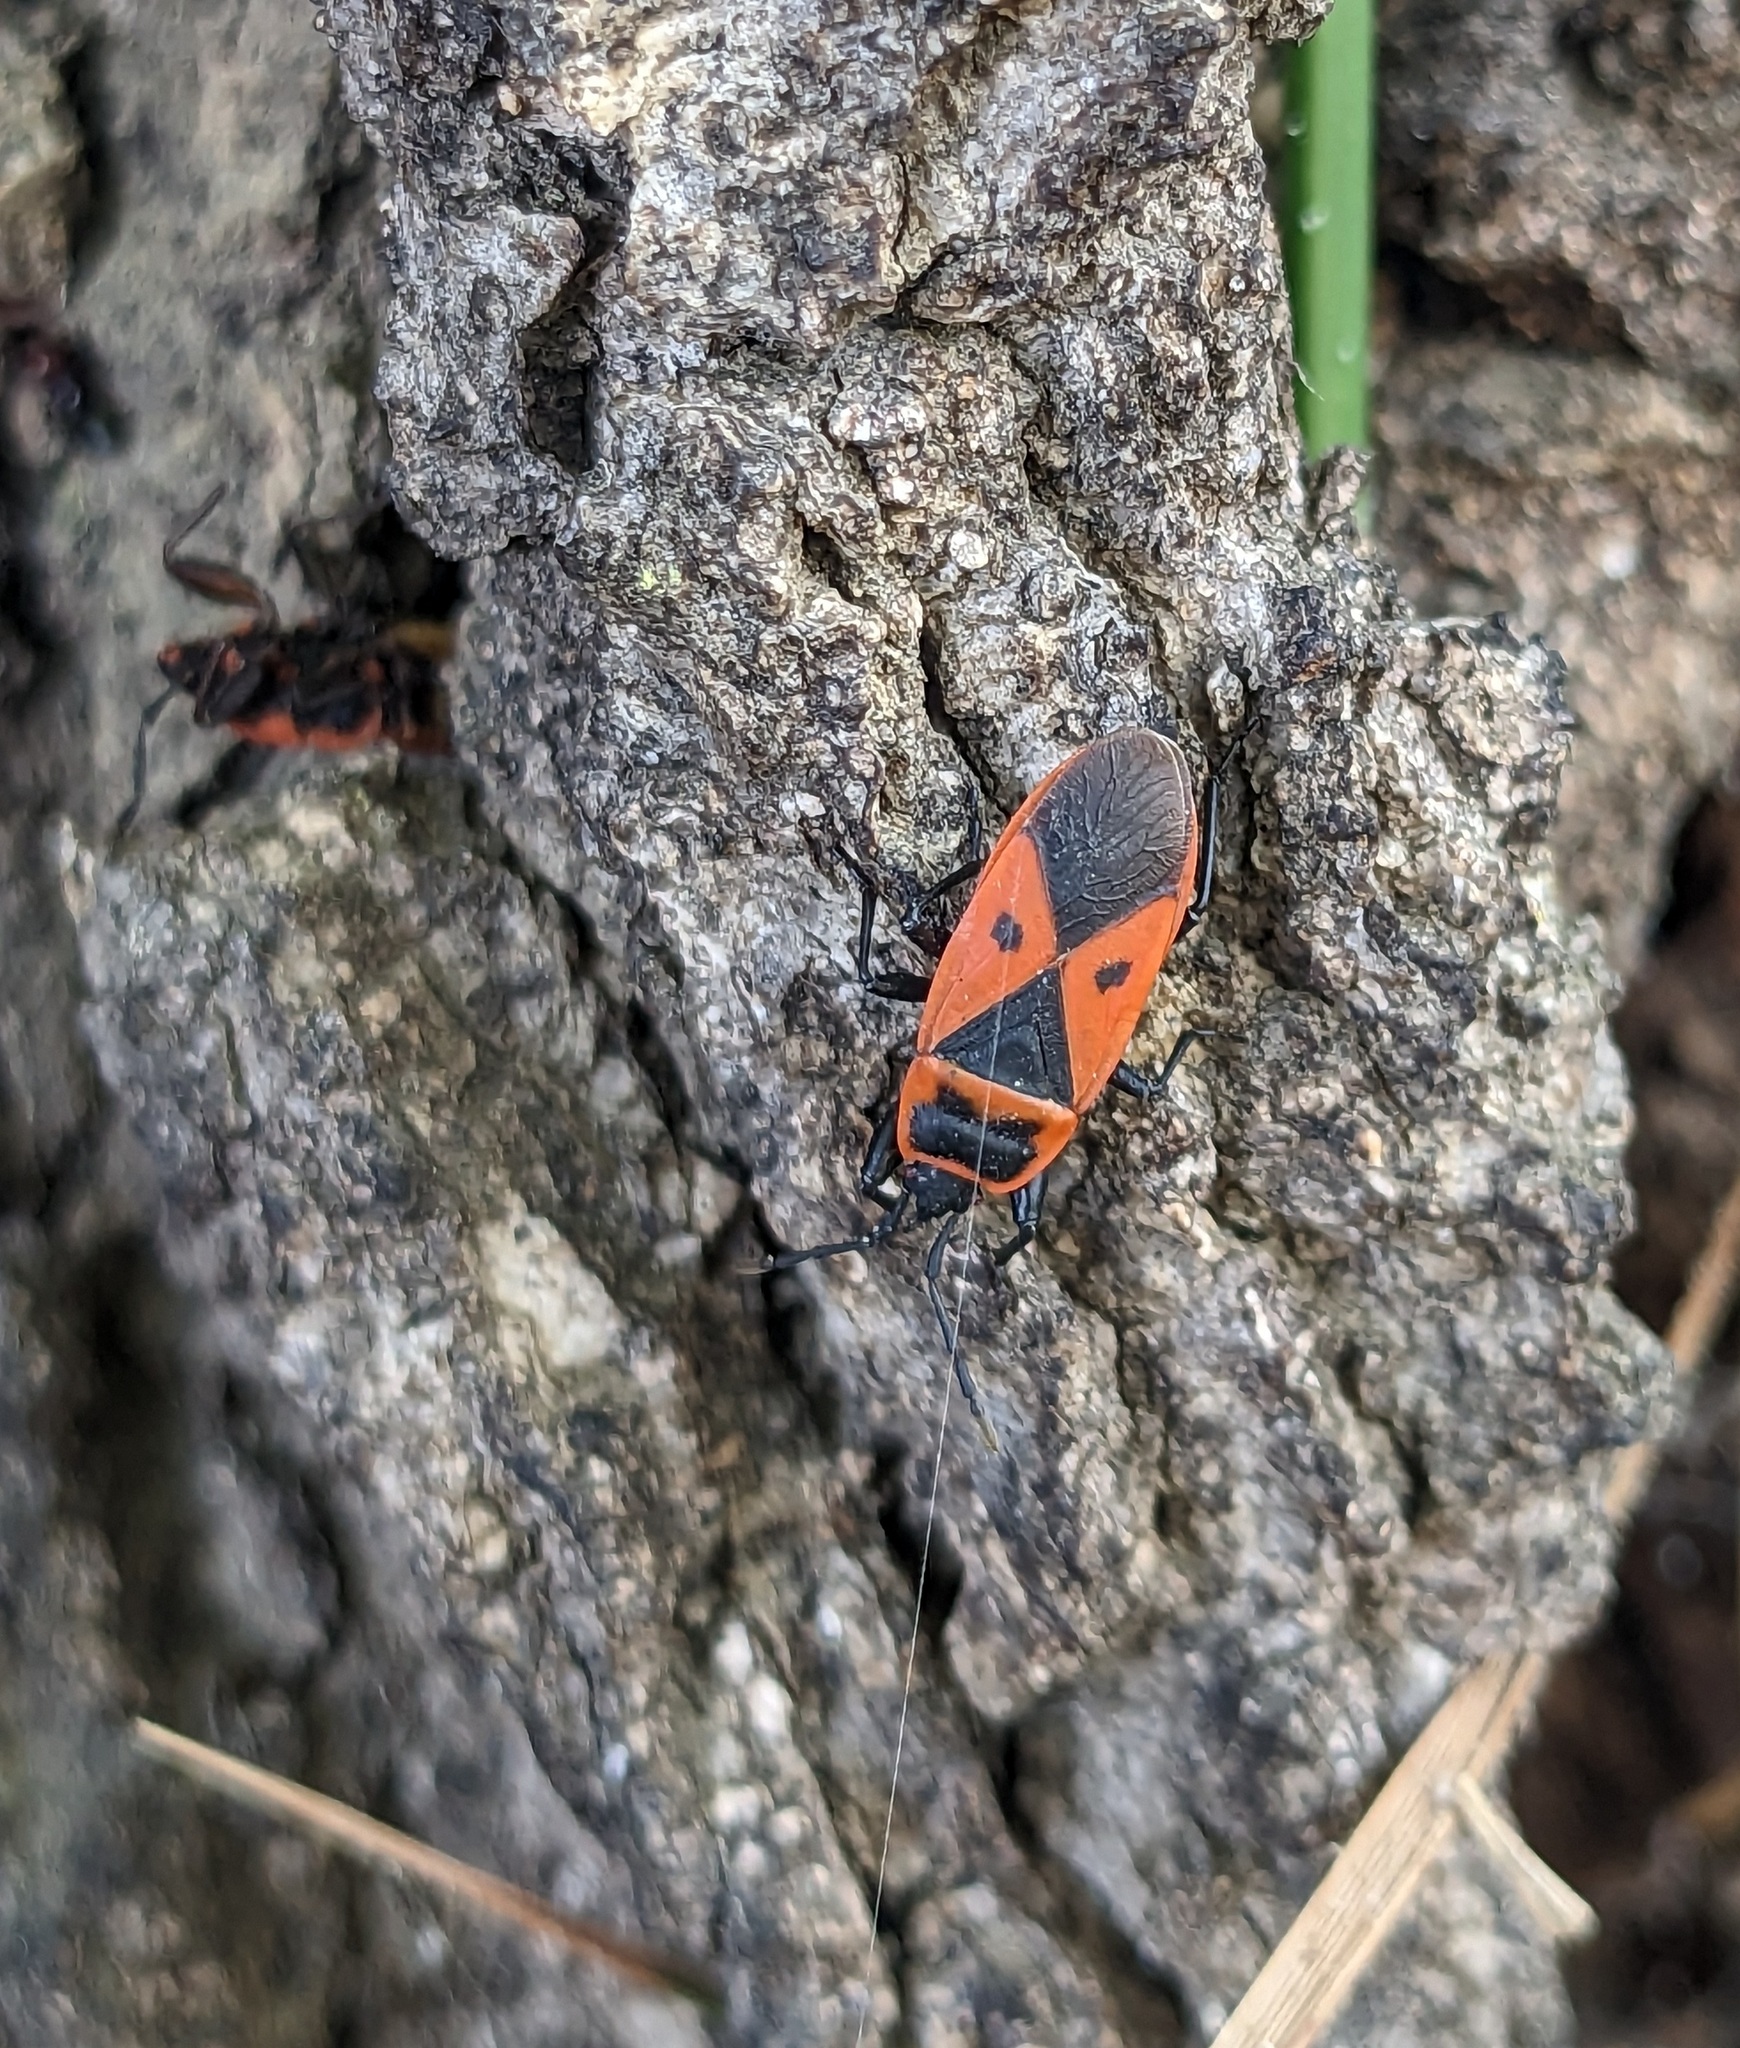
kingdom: Animalia
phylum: Arthropoda
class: Insecta
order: Hemiptera
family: Pyrrhocoridae
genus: Scantius
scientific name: Scantius aegyptius
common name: Red bug
